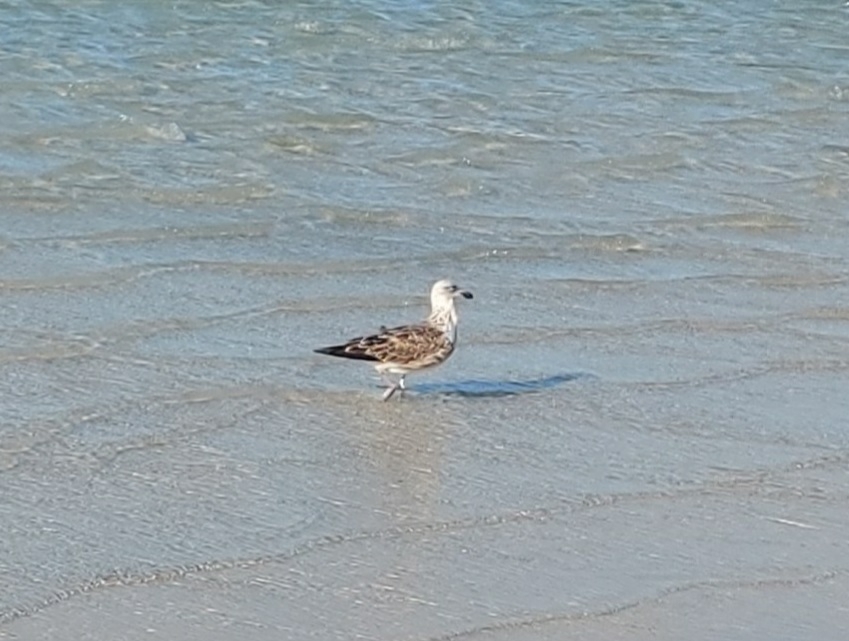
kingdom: Animalia
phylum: Chordata
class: Aves
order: Charadriiformes
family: Laridae
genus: Larus
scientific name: Larus dominicanus
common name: Kelp gull
